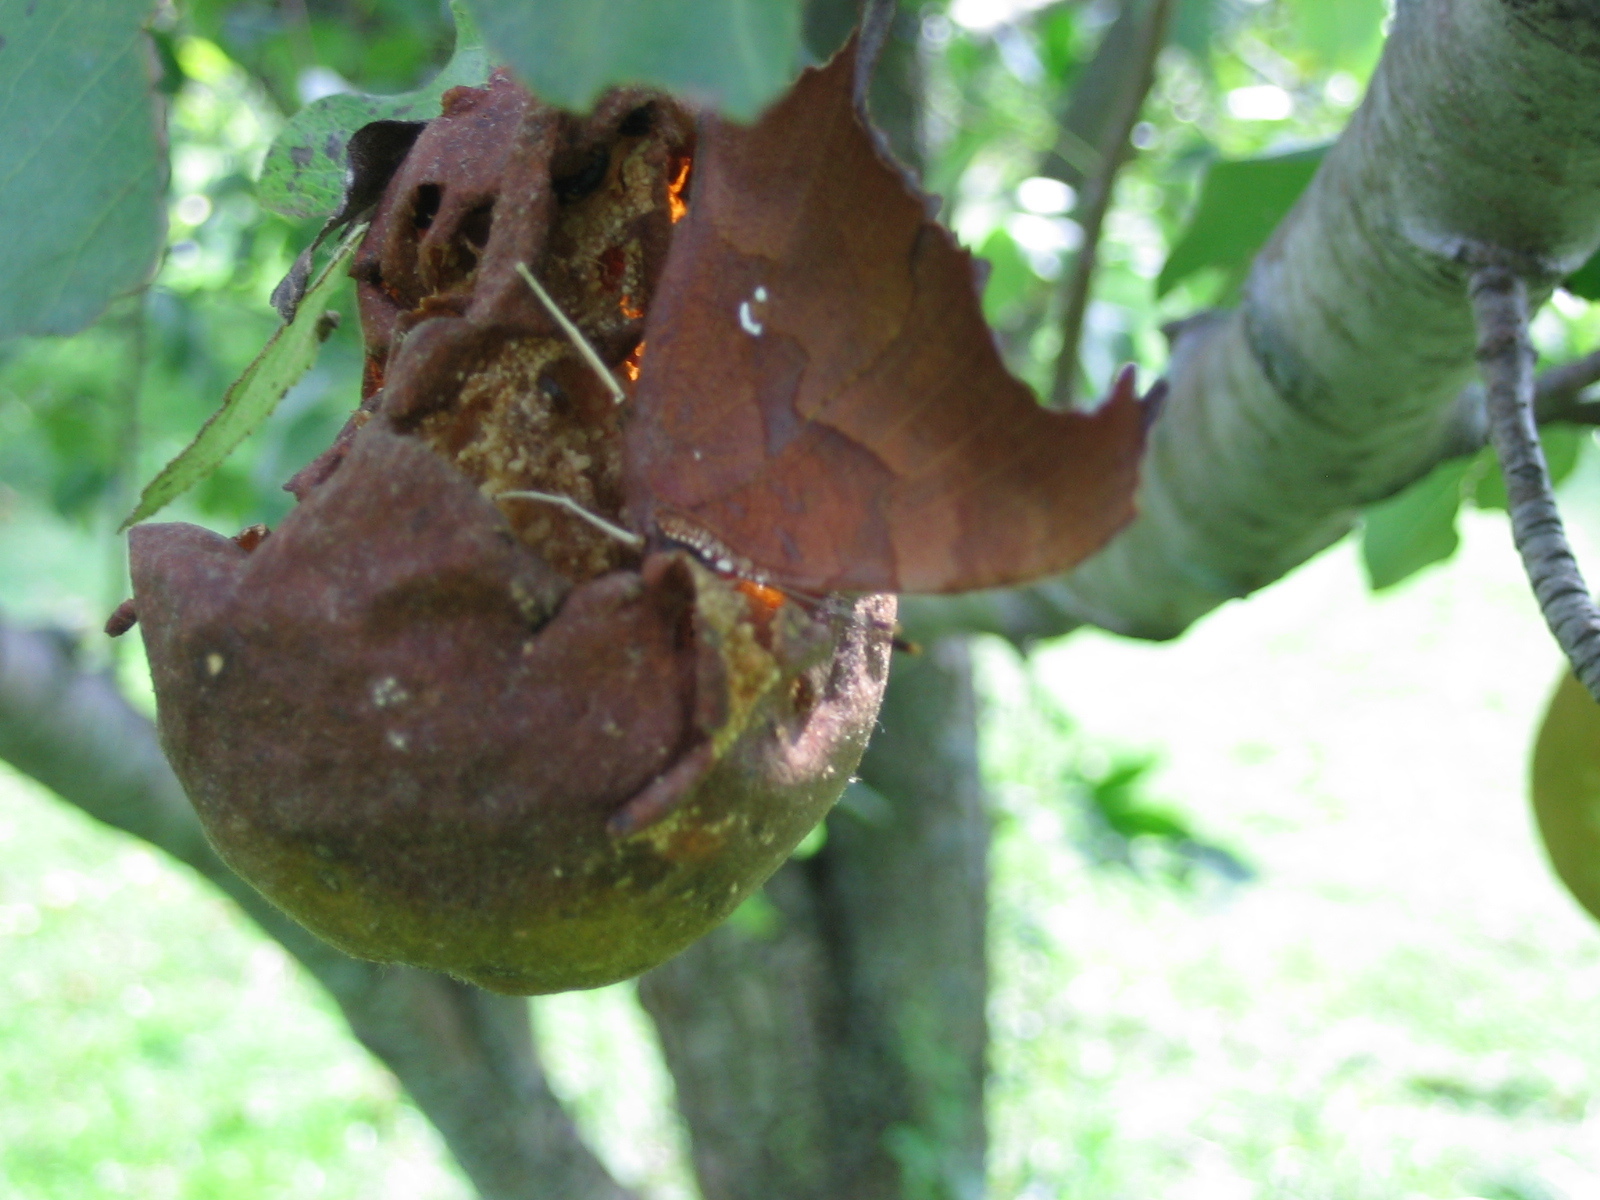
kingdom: Animalia
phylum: Arthropoda
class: Insecta
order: Lepidoptera
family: Nymphalidae
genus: Polygonia
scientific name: Polygonia interrogationis
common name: Question mark
